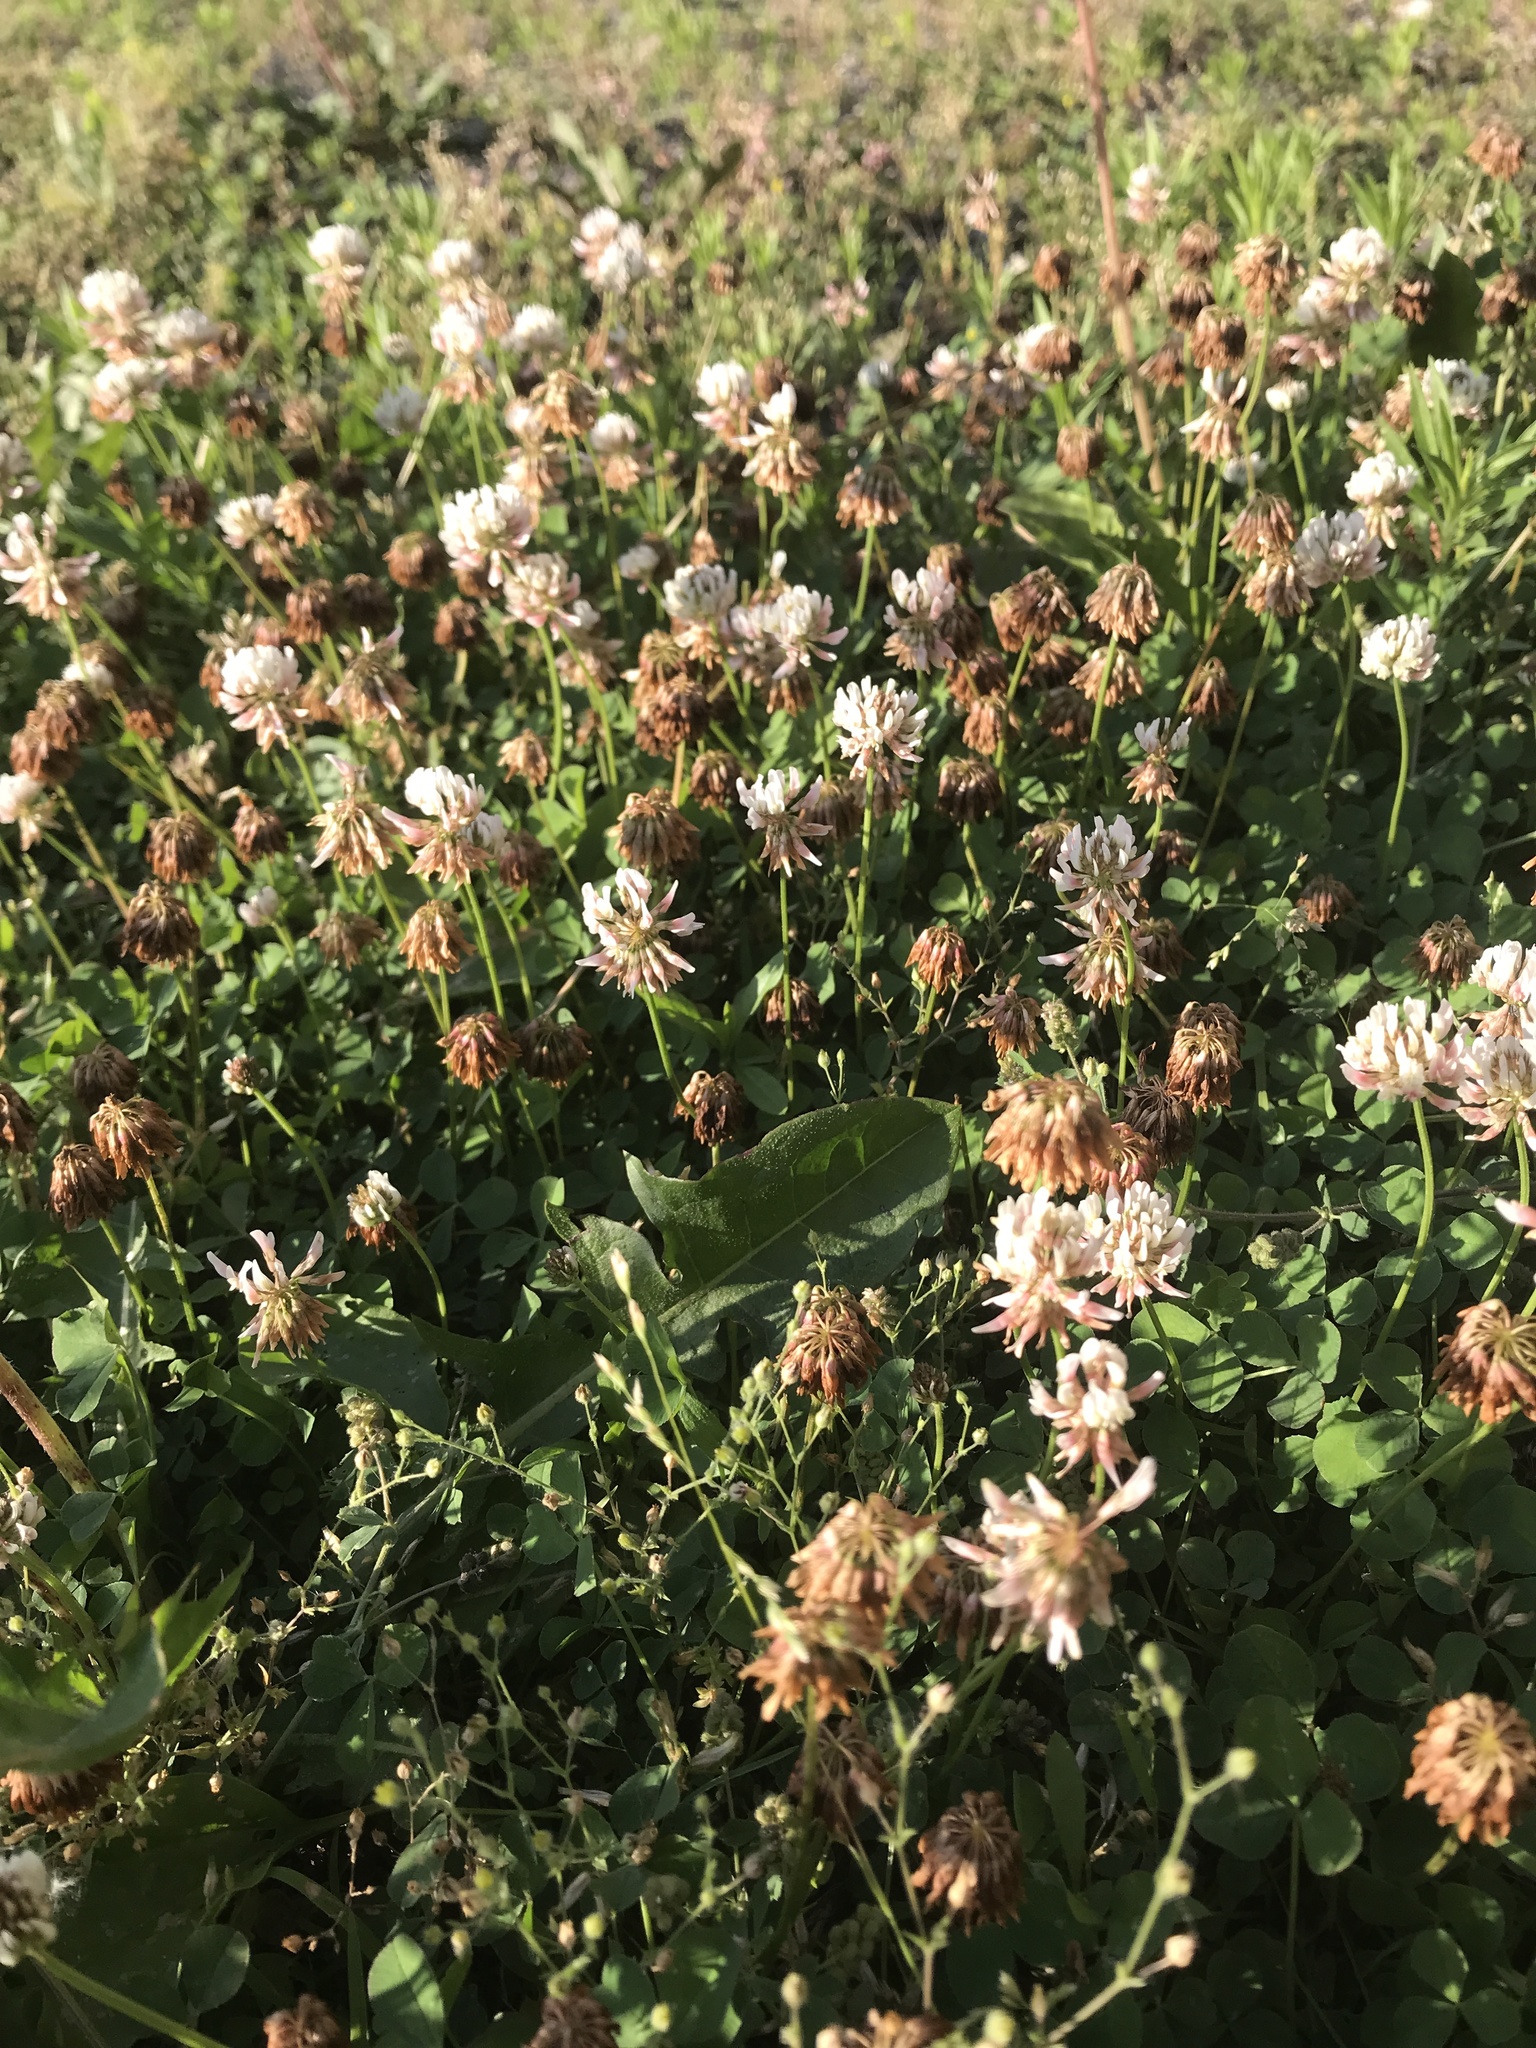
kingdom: Plantae
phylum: Tracheophyta
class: Magnoliopsida
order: Fabales
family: Fabaceae
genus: Trifolium
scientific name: Trifolium repens
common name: White clover
